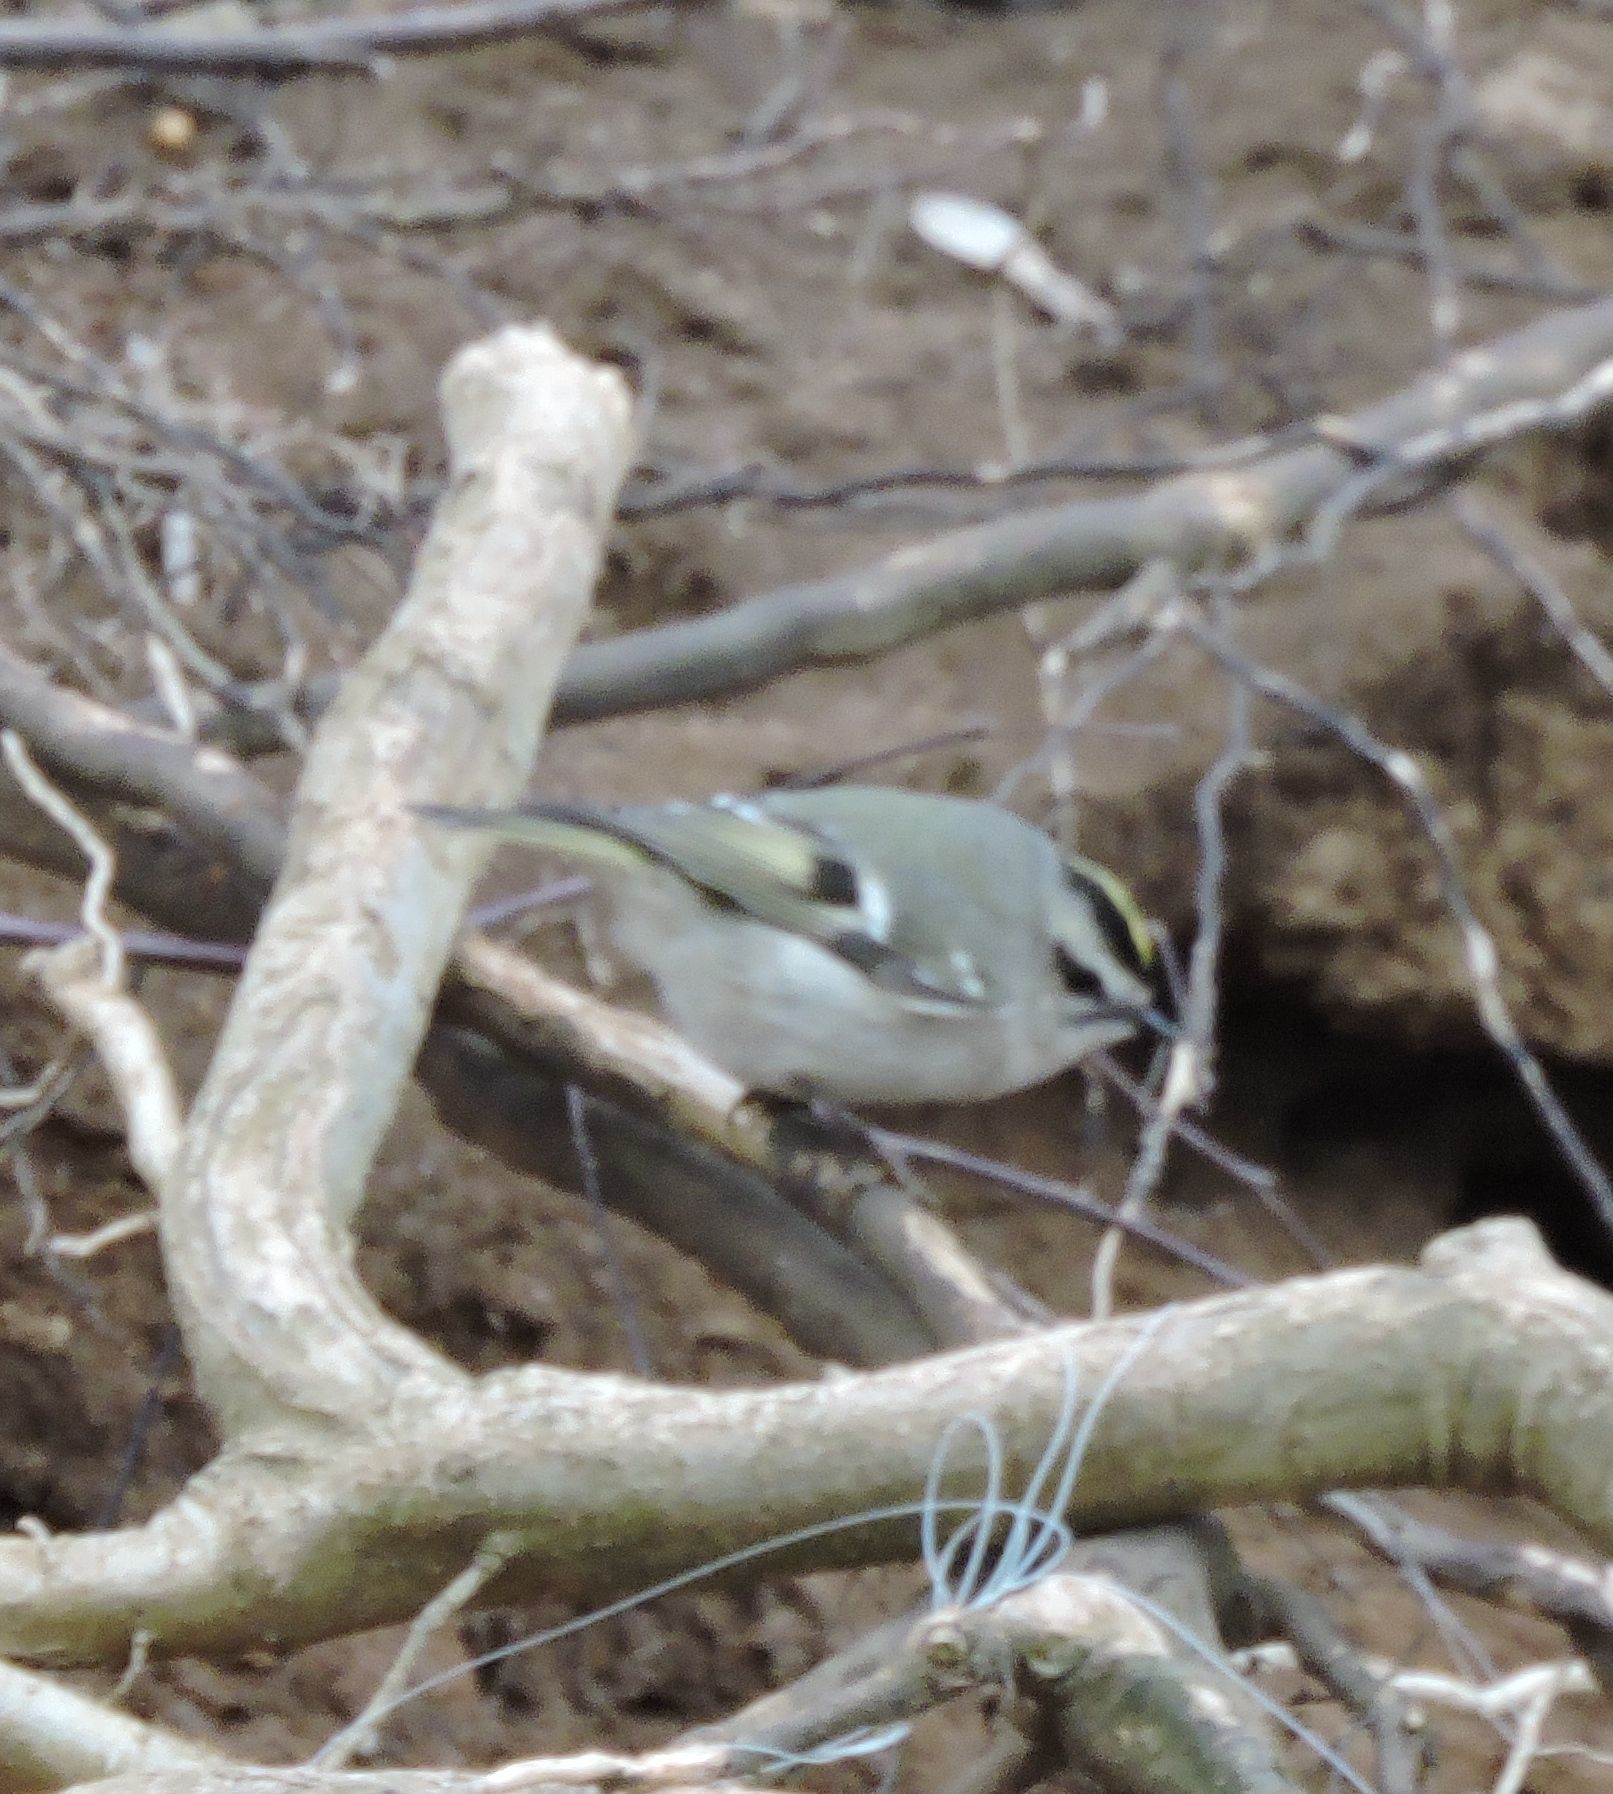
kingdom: Animalia
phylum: Chordata
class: Aves
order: Passeriformes
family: Regulidae
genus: Regulus
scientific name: Regulus satrapa
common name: Golden-crowned kinglet
